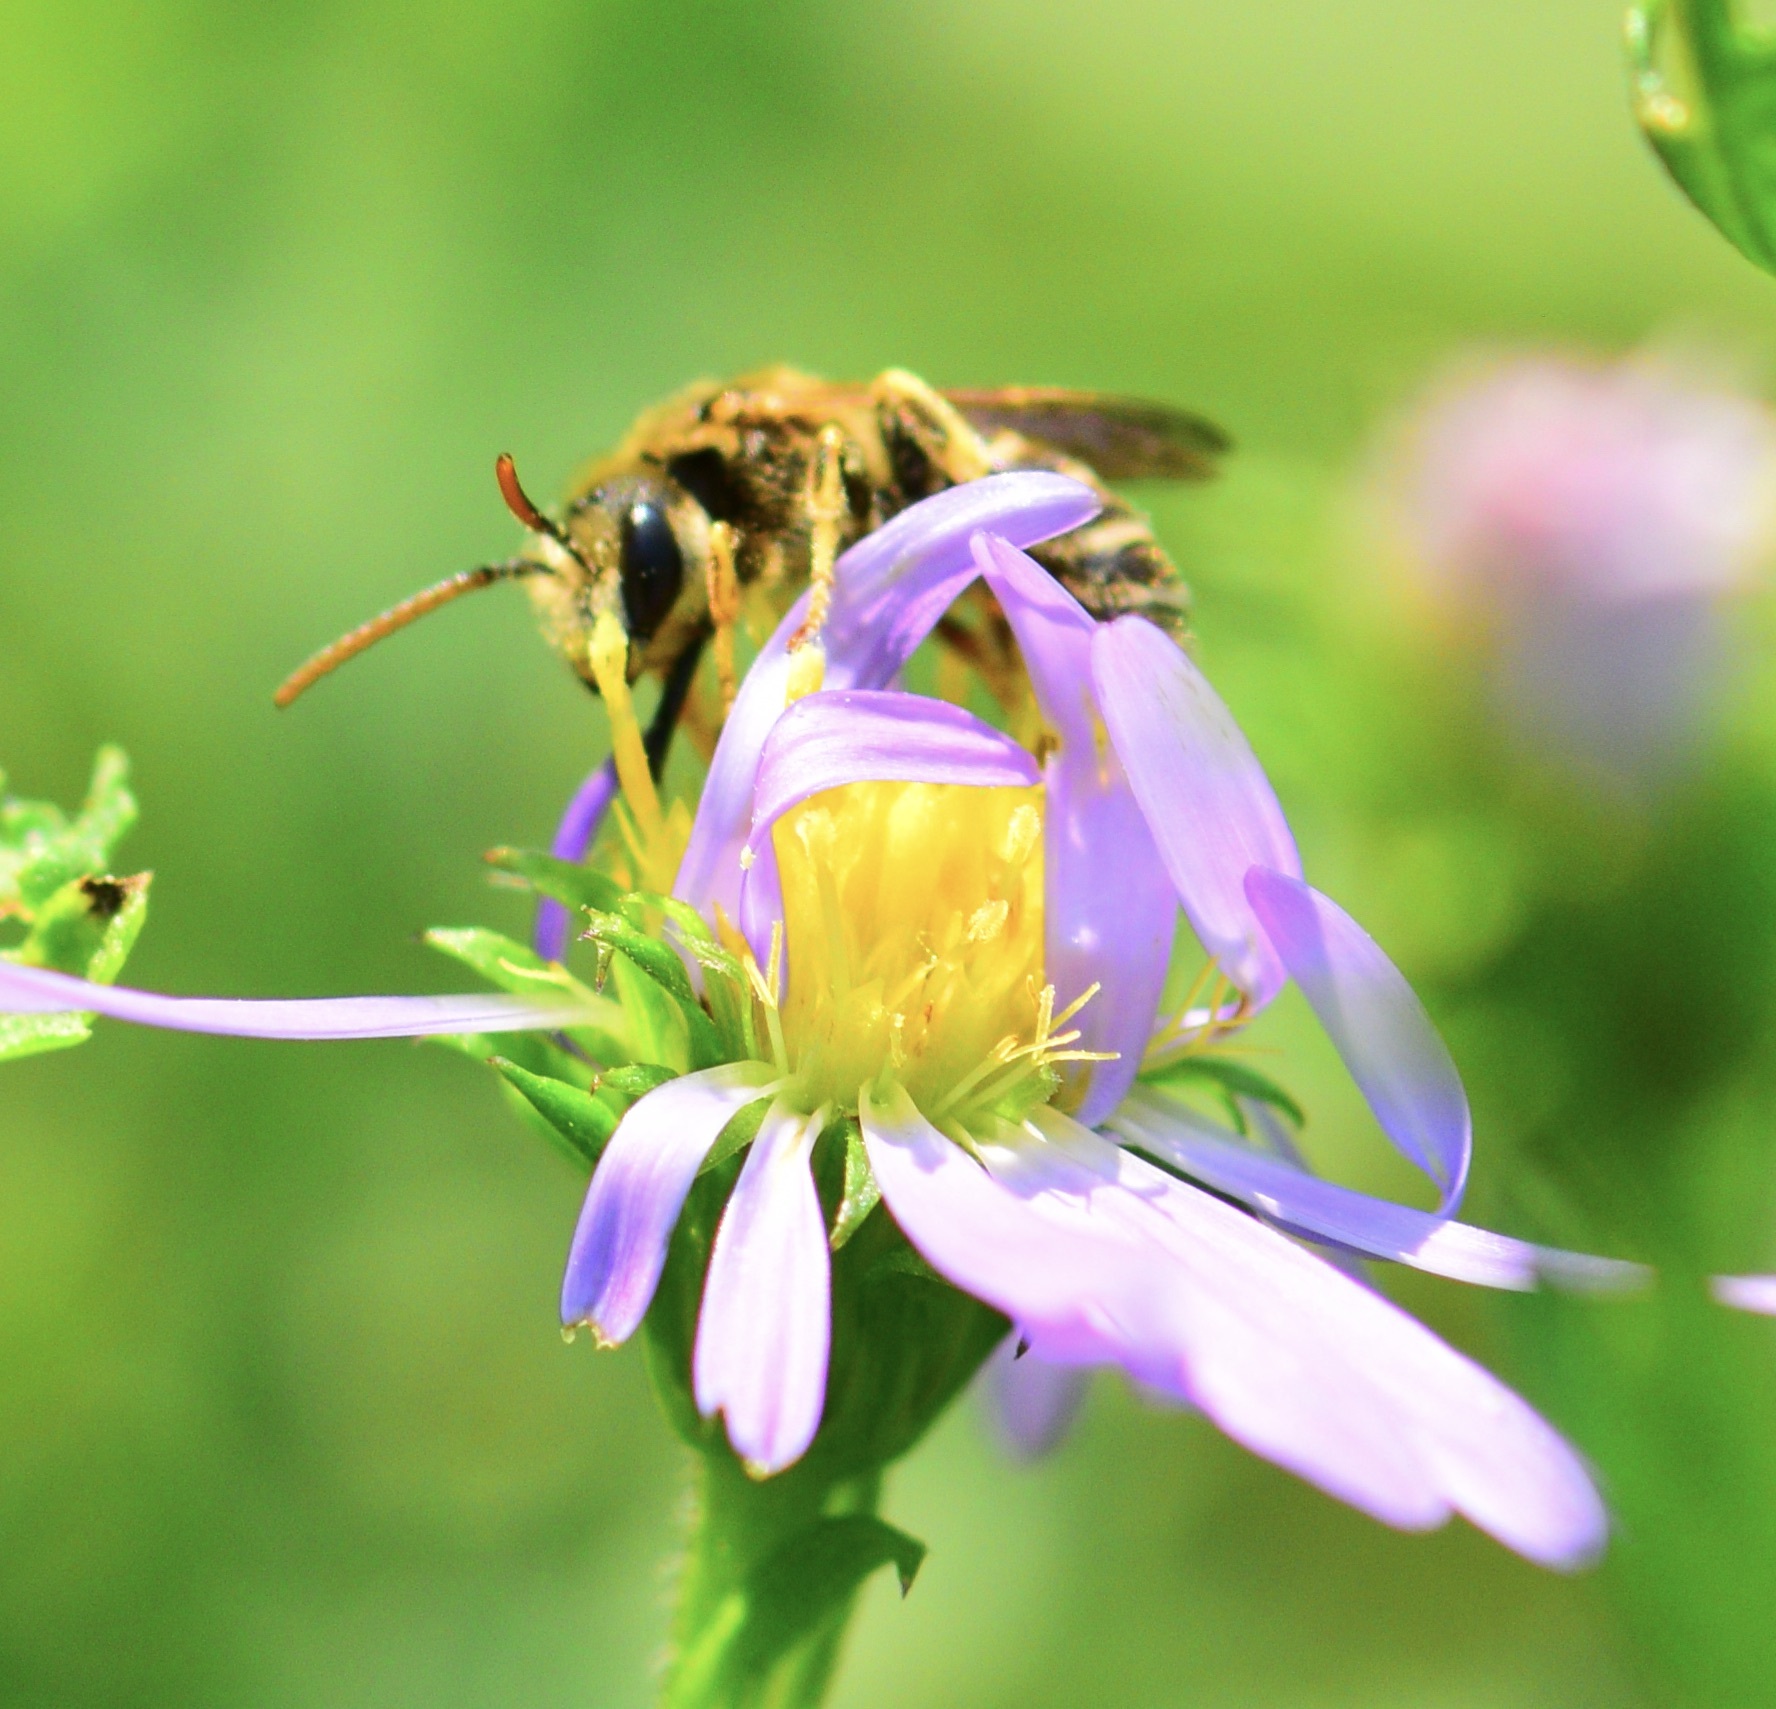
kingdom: Animalia
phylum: Arthropoda
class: Insecta
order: Hymenoptera
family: Halictidae
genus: Halictus
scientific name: Halictus ligatus
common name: Ligated furrow bee
